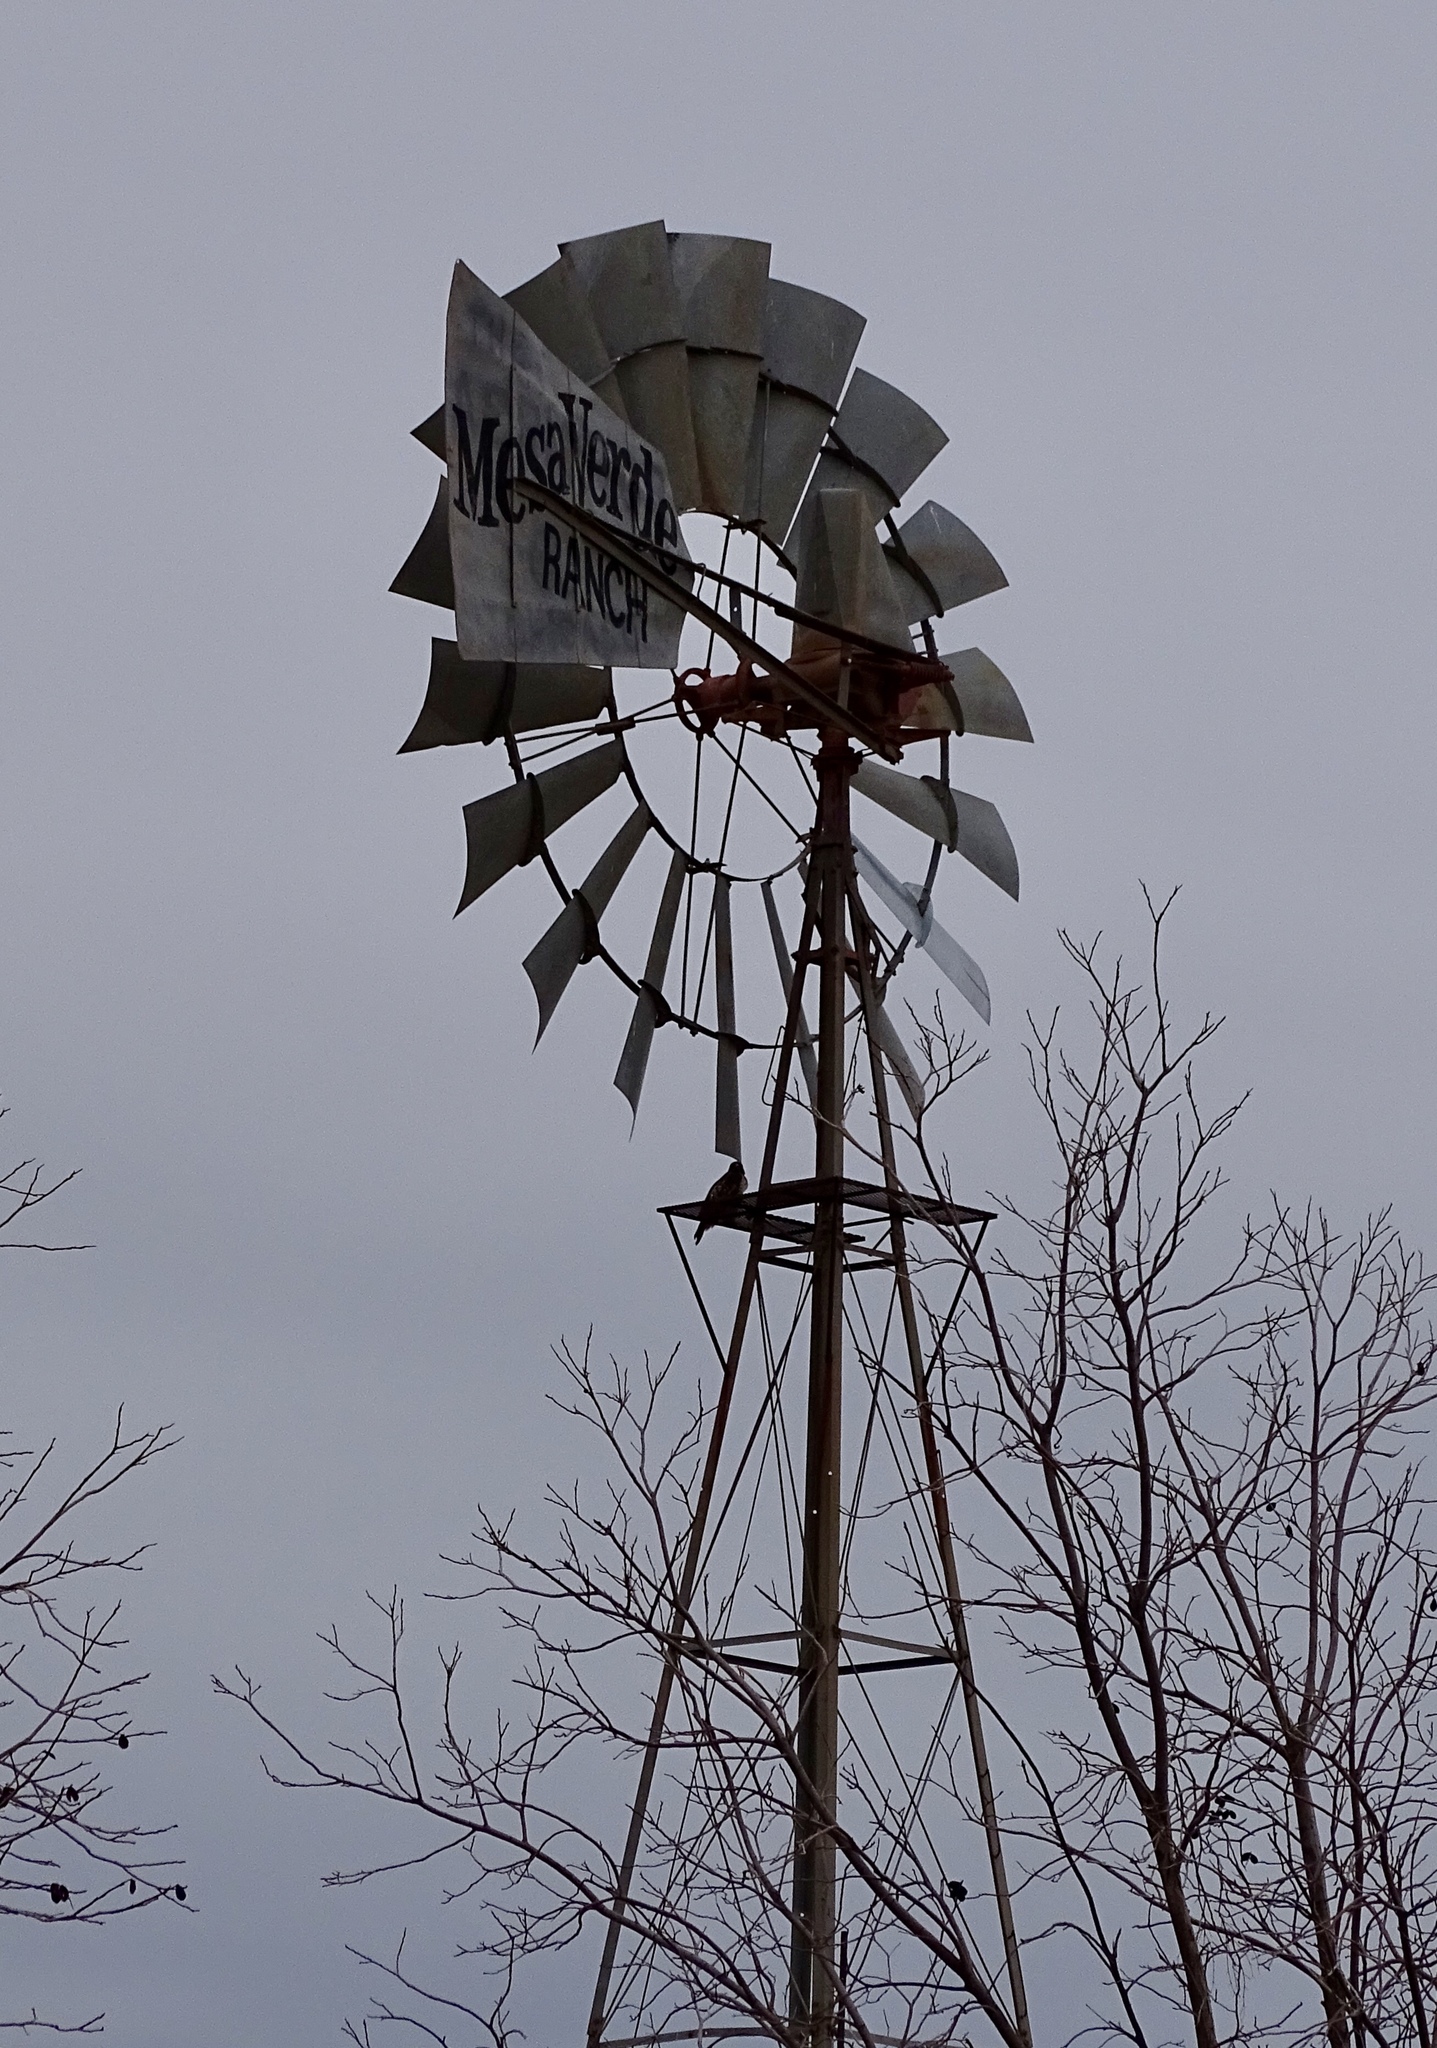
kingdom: Animalia
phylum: Chordata
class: Aves
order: Accipitriformes
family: Accipitridae
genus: Buteo
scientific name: Buteo jamaicensis
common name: Red-tailed hawk
